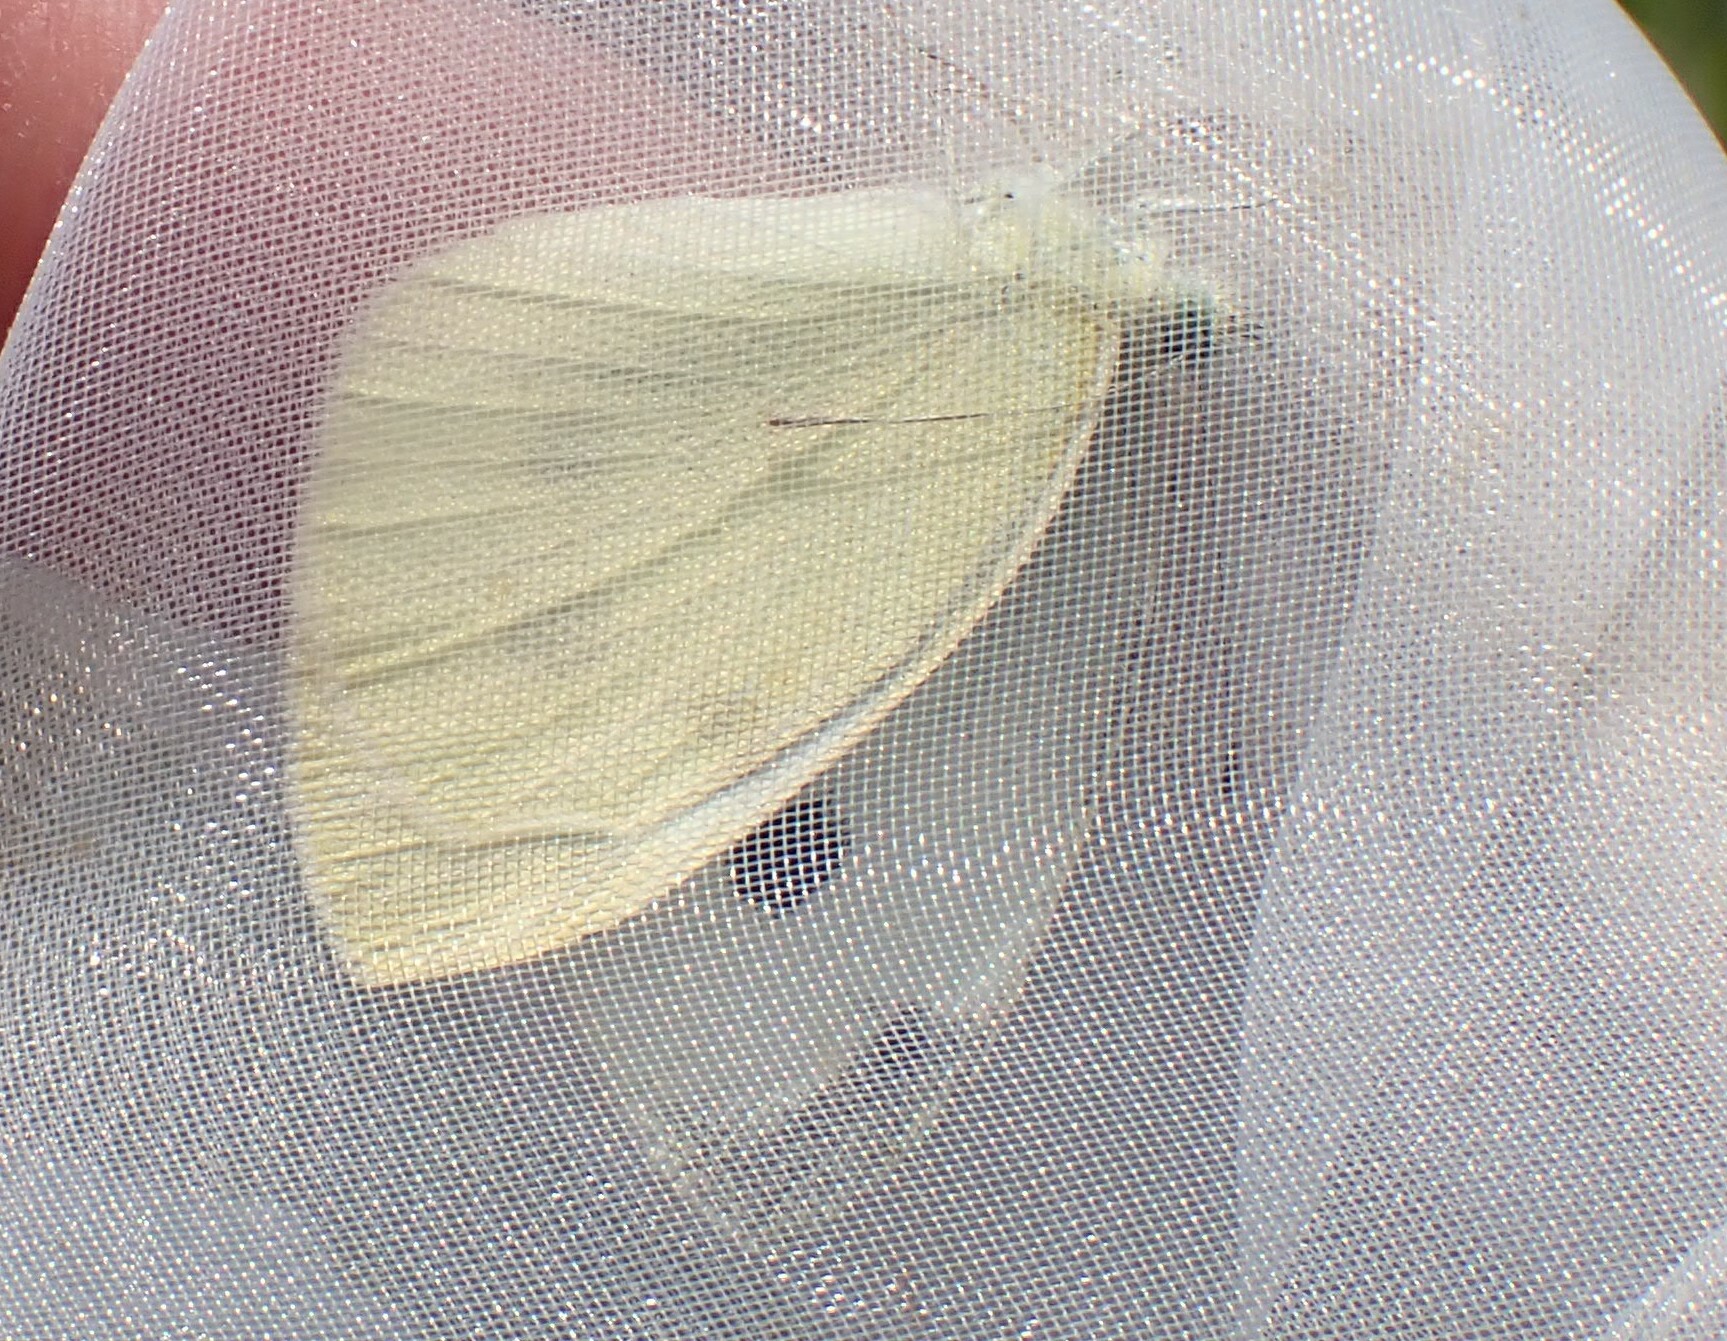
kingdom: Animalia
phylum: Arthropoda
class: Insecta
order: Lepidoptera
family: Pieridae
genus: Pieris
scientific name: Pieris rapae
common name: Small white
